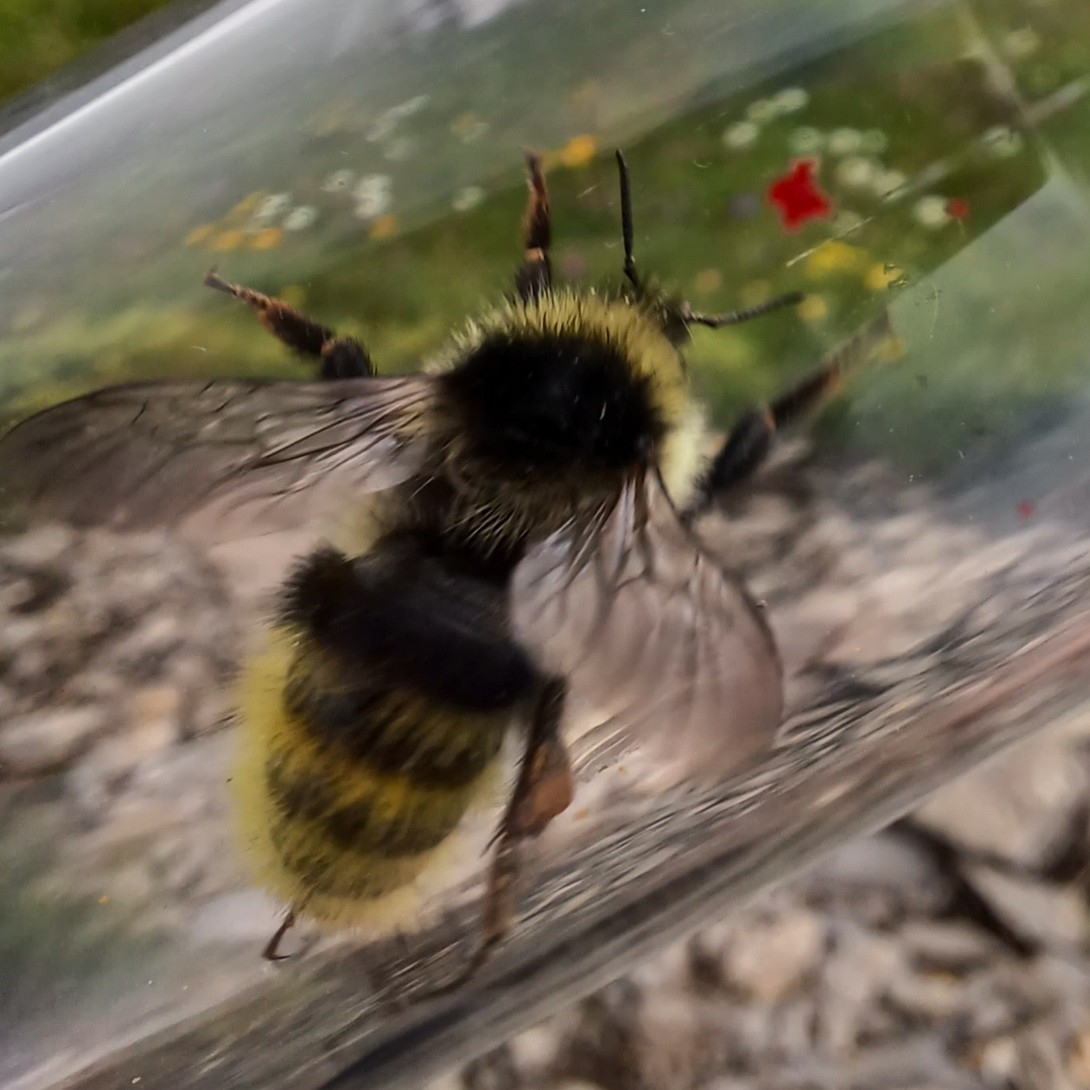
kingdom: Animalia
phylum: Arthropoda
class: Insecta
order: Hymenoptera
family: Apidae
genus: Bombus
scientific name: Bombus mucidus
